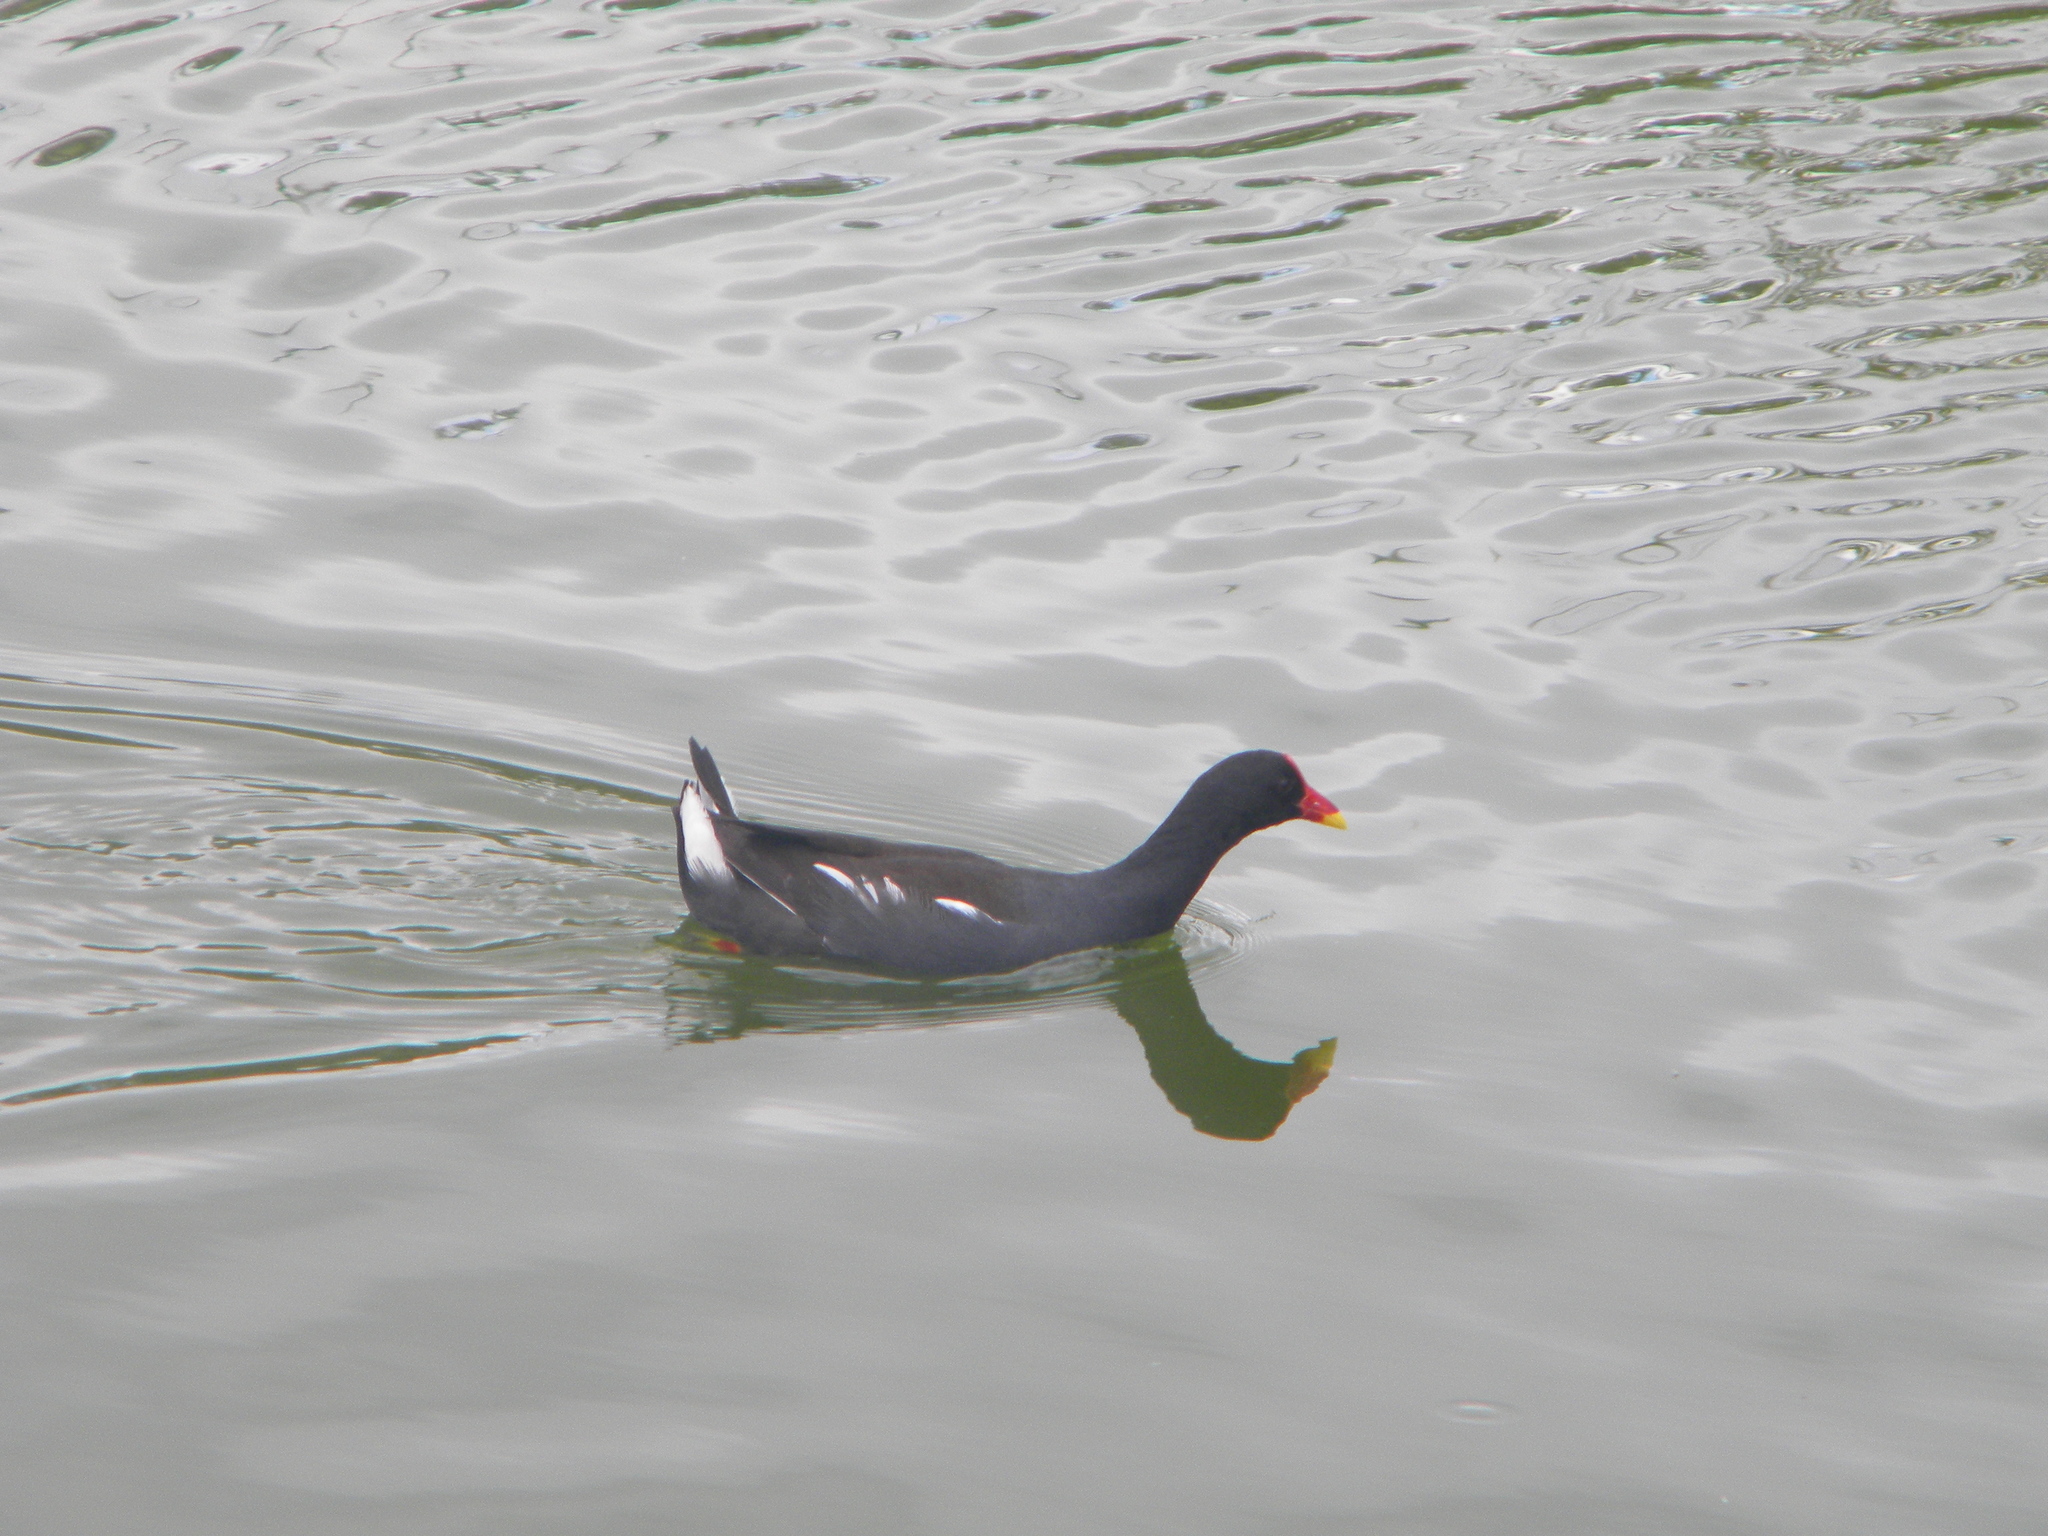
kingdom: Animalia
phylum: Chordata
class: Aves
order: Gruiformes
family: Rallidae
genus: Gallinula
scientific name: Gallinula chloropus
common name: Common moorhen
